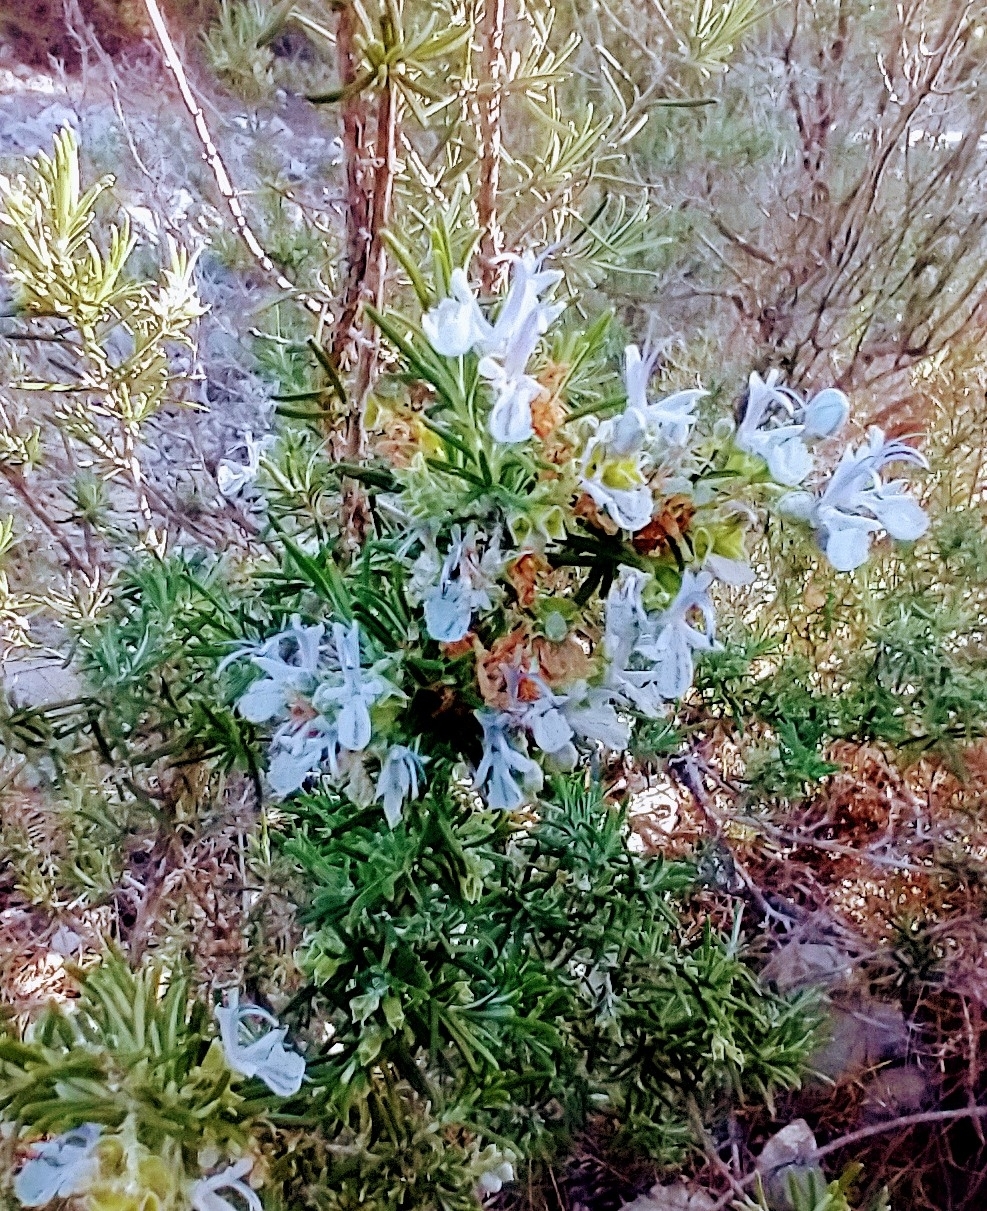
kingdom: Plantae
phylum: Tracheophyta
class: Magnoliopsida
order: Lamiales
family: Lamiaceae
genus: Salvia
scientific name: Salvia rosmarinus
